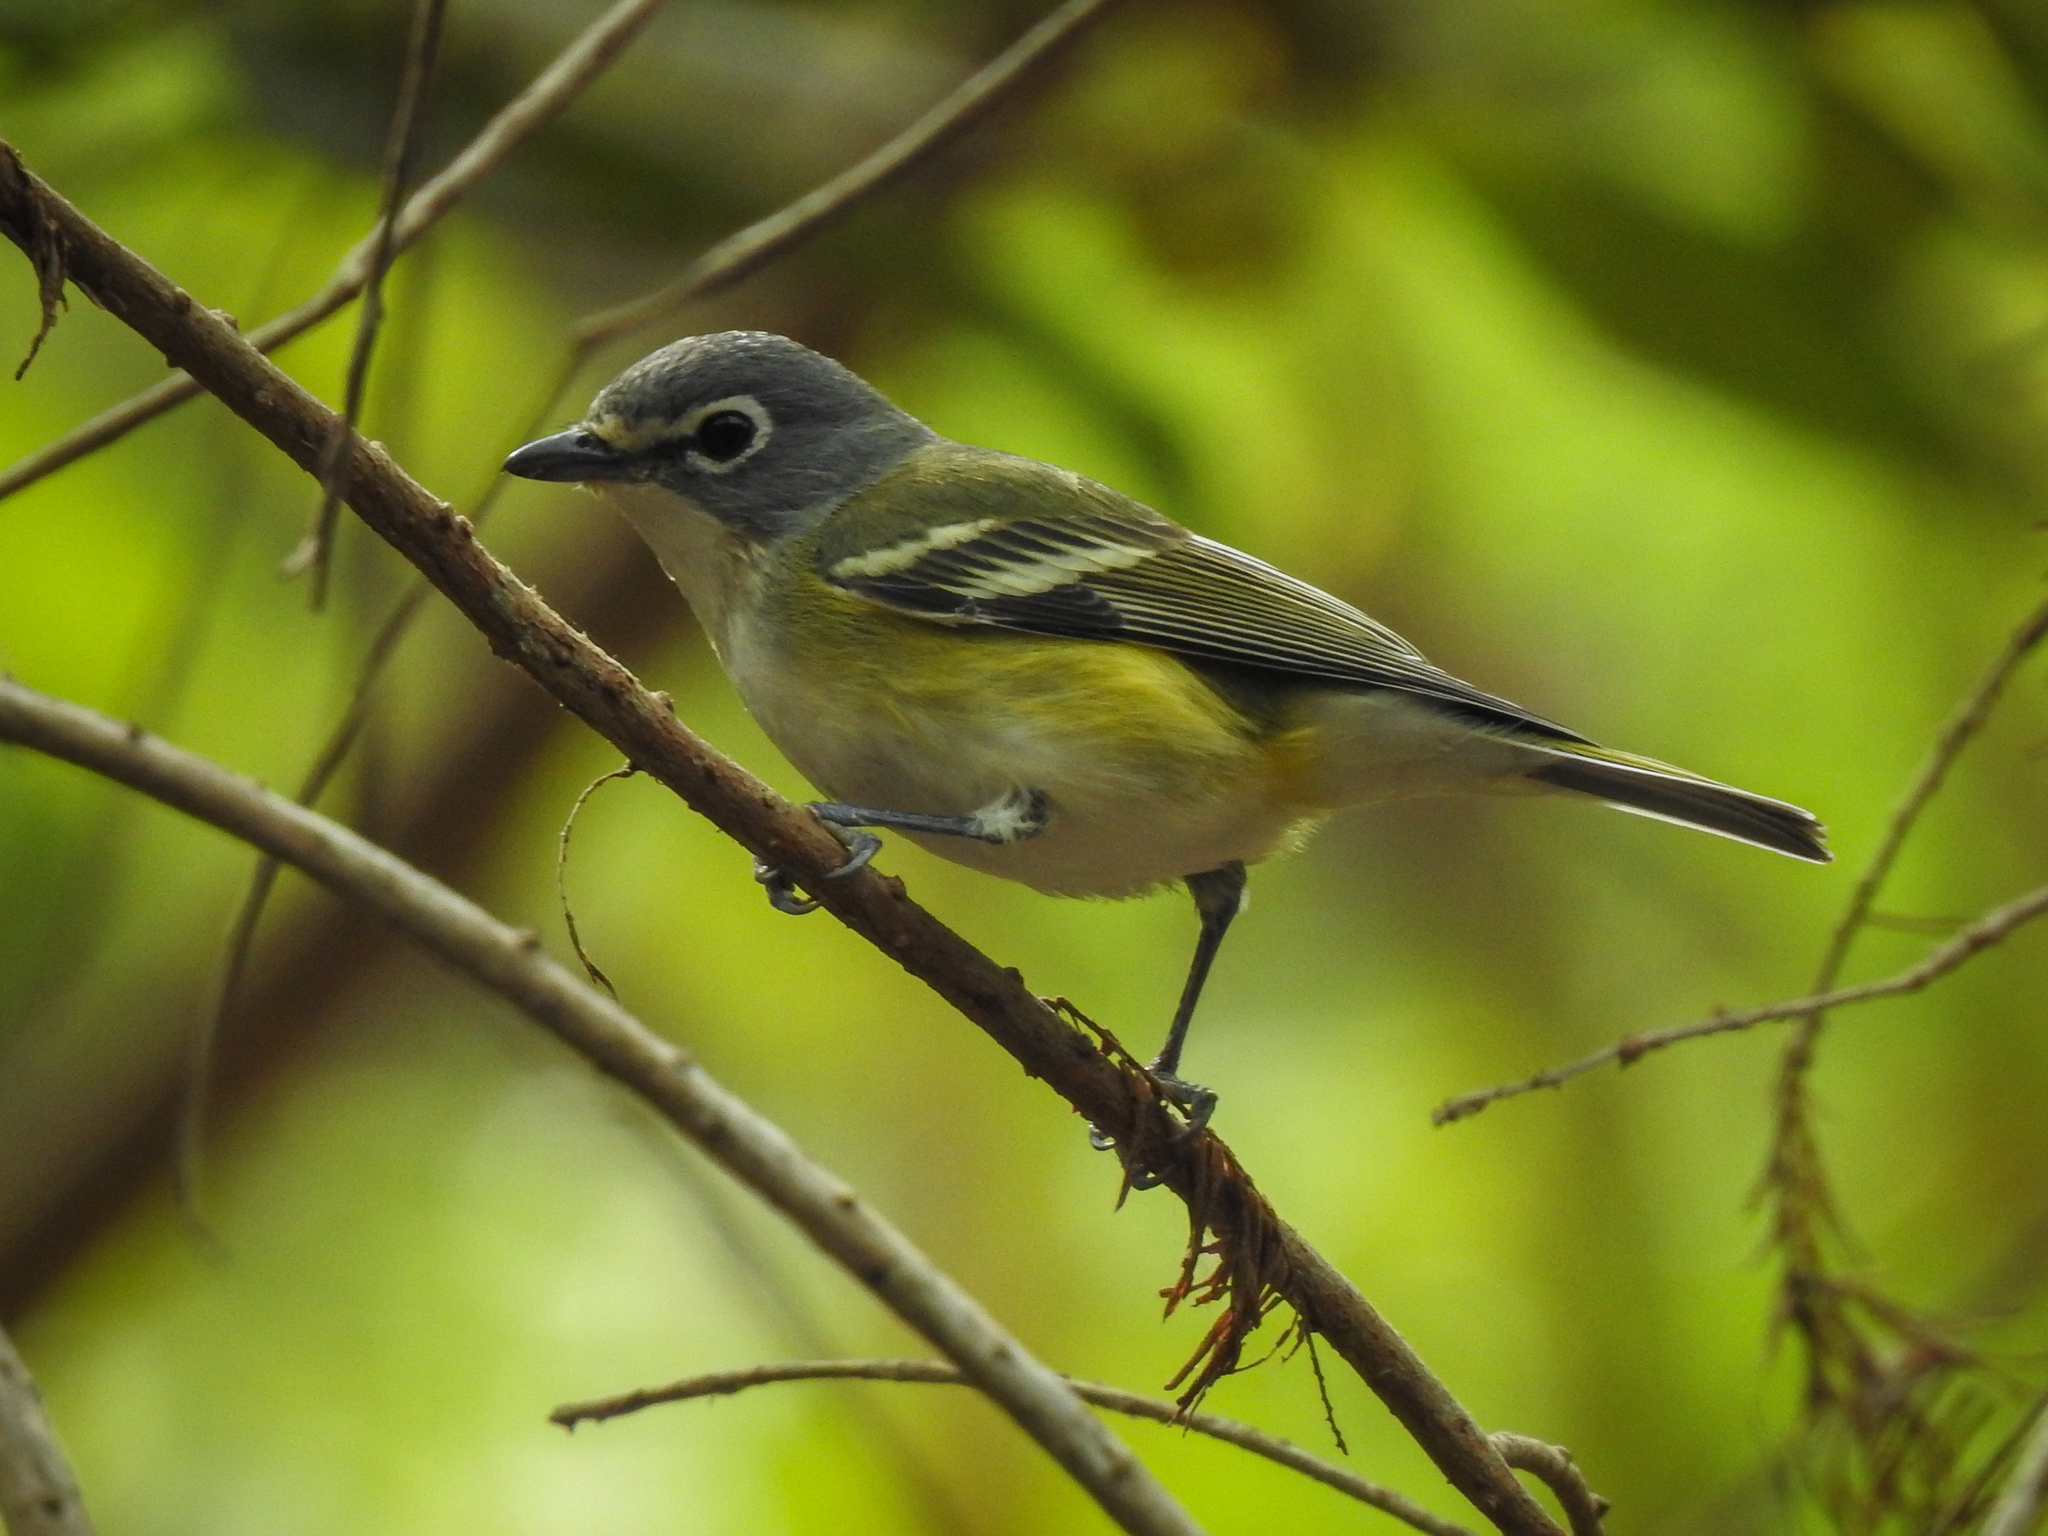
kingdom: Animalia
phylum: Chordata
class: Aves
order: Passeriformes
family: Vireonidae
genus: Vireo
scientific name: Vireo solitarius
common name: Blue-headed vireo
